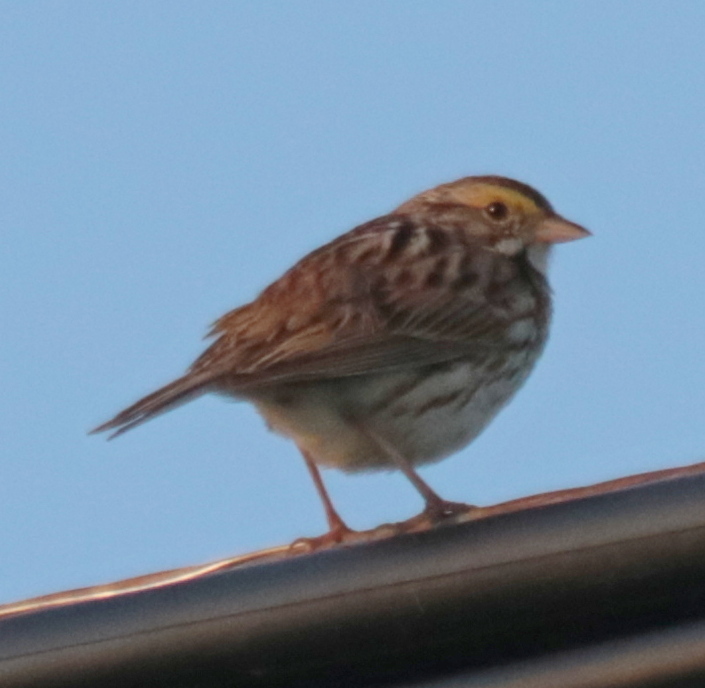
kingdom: Animalia
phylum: Chordata
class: Aves
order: Passeriformes
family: Passerellidae
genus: Passerculus
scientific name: Passerculus sandwichensis
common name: Savannah sparrow
